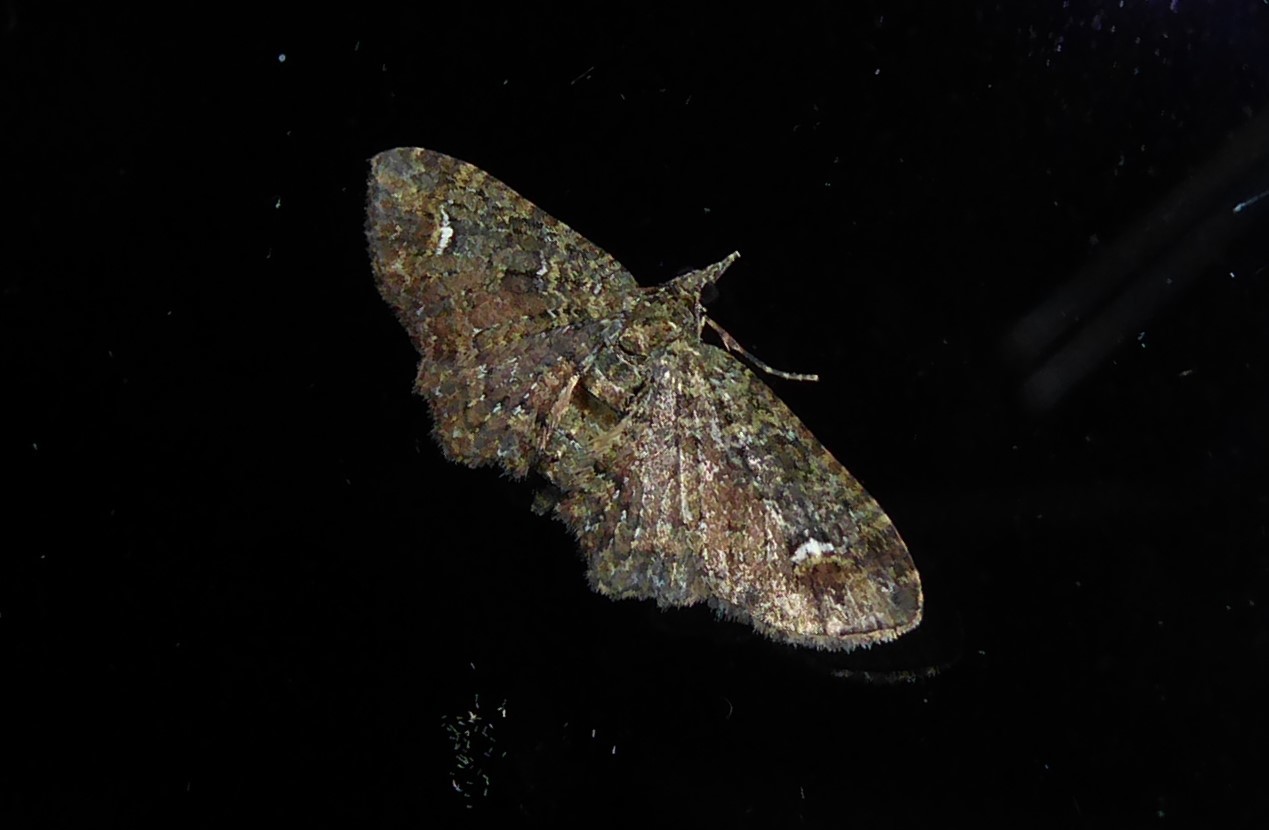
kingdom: Animalia
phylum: Arthropoda
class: Insecta
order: Lepidoptera
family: Geometridae
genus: Pasiphilodes
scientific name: Pasiphilodes testulata
